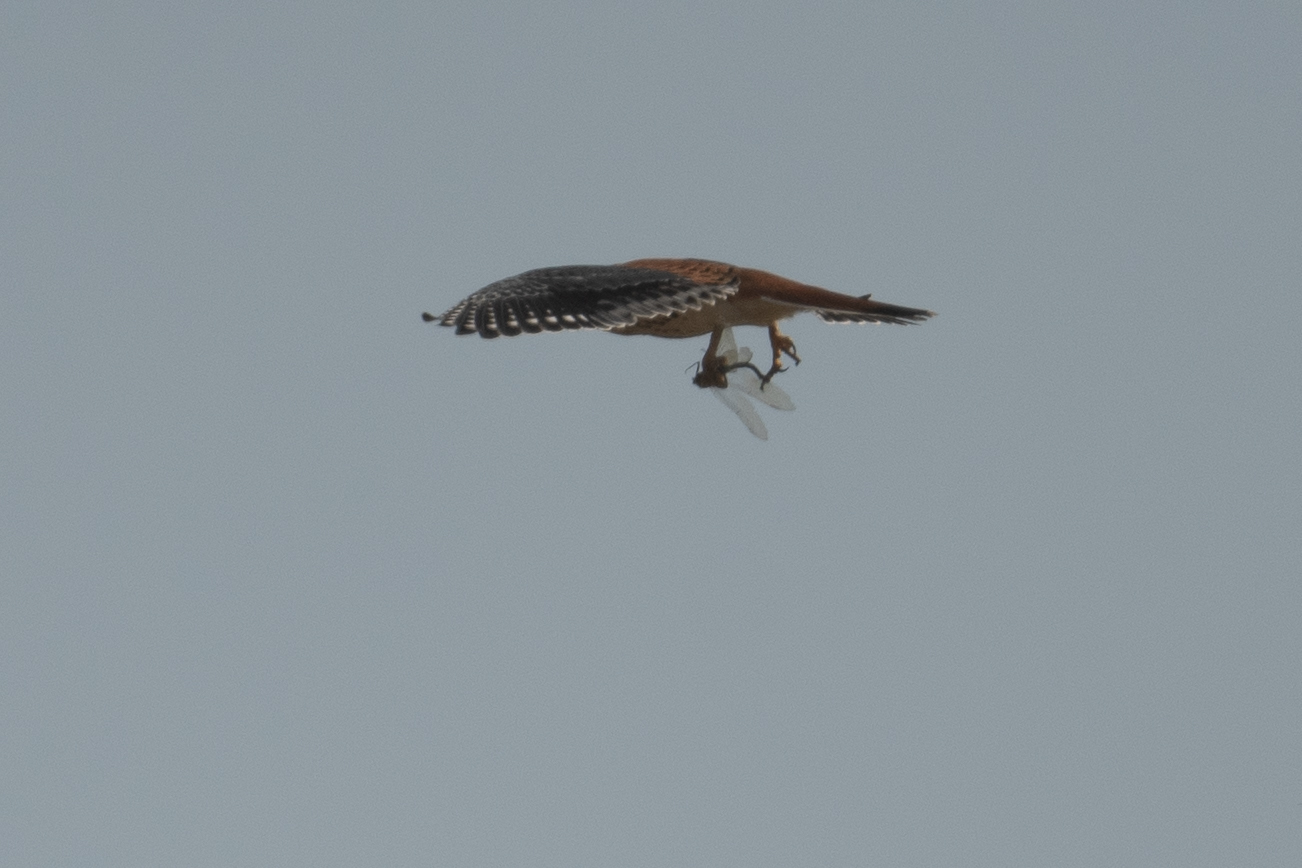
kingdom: Animalia
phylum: Chordata
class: Aves
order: Falconiformes
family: Falconidae
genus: Falco
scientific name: Falco sparverius
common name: American kestrel
